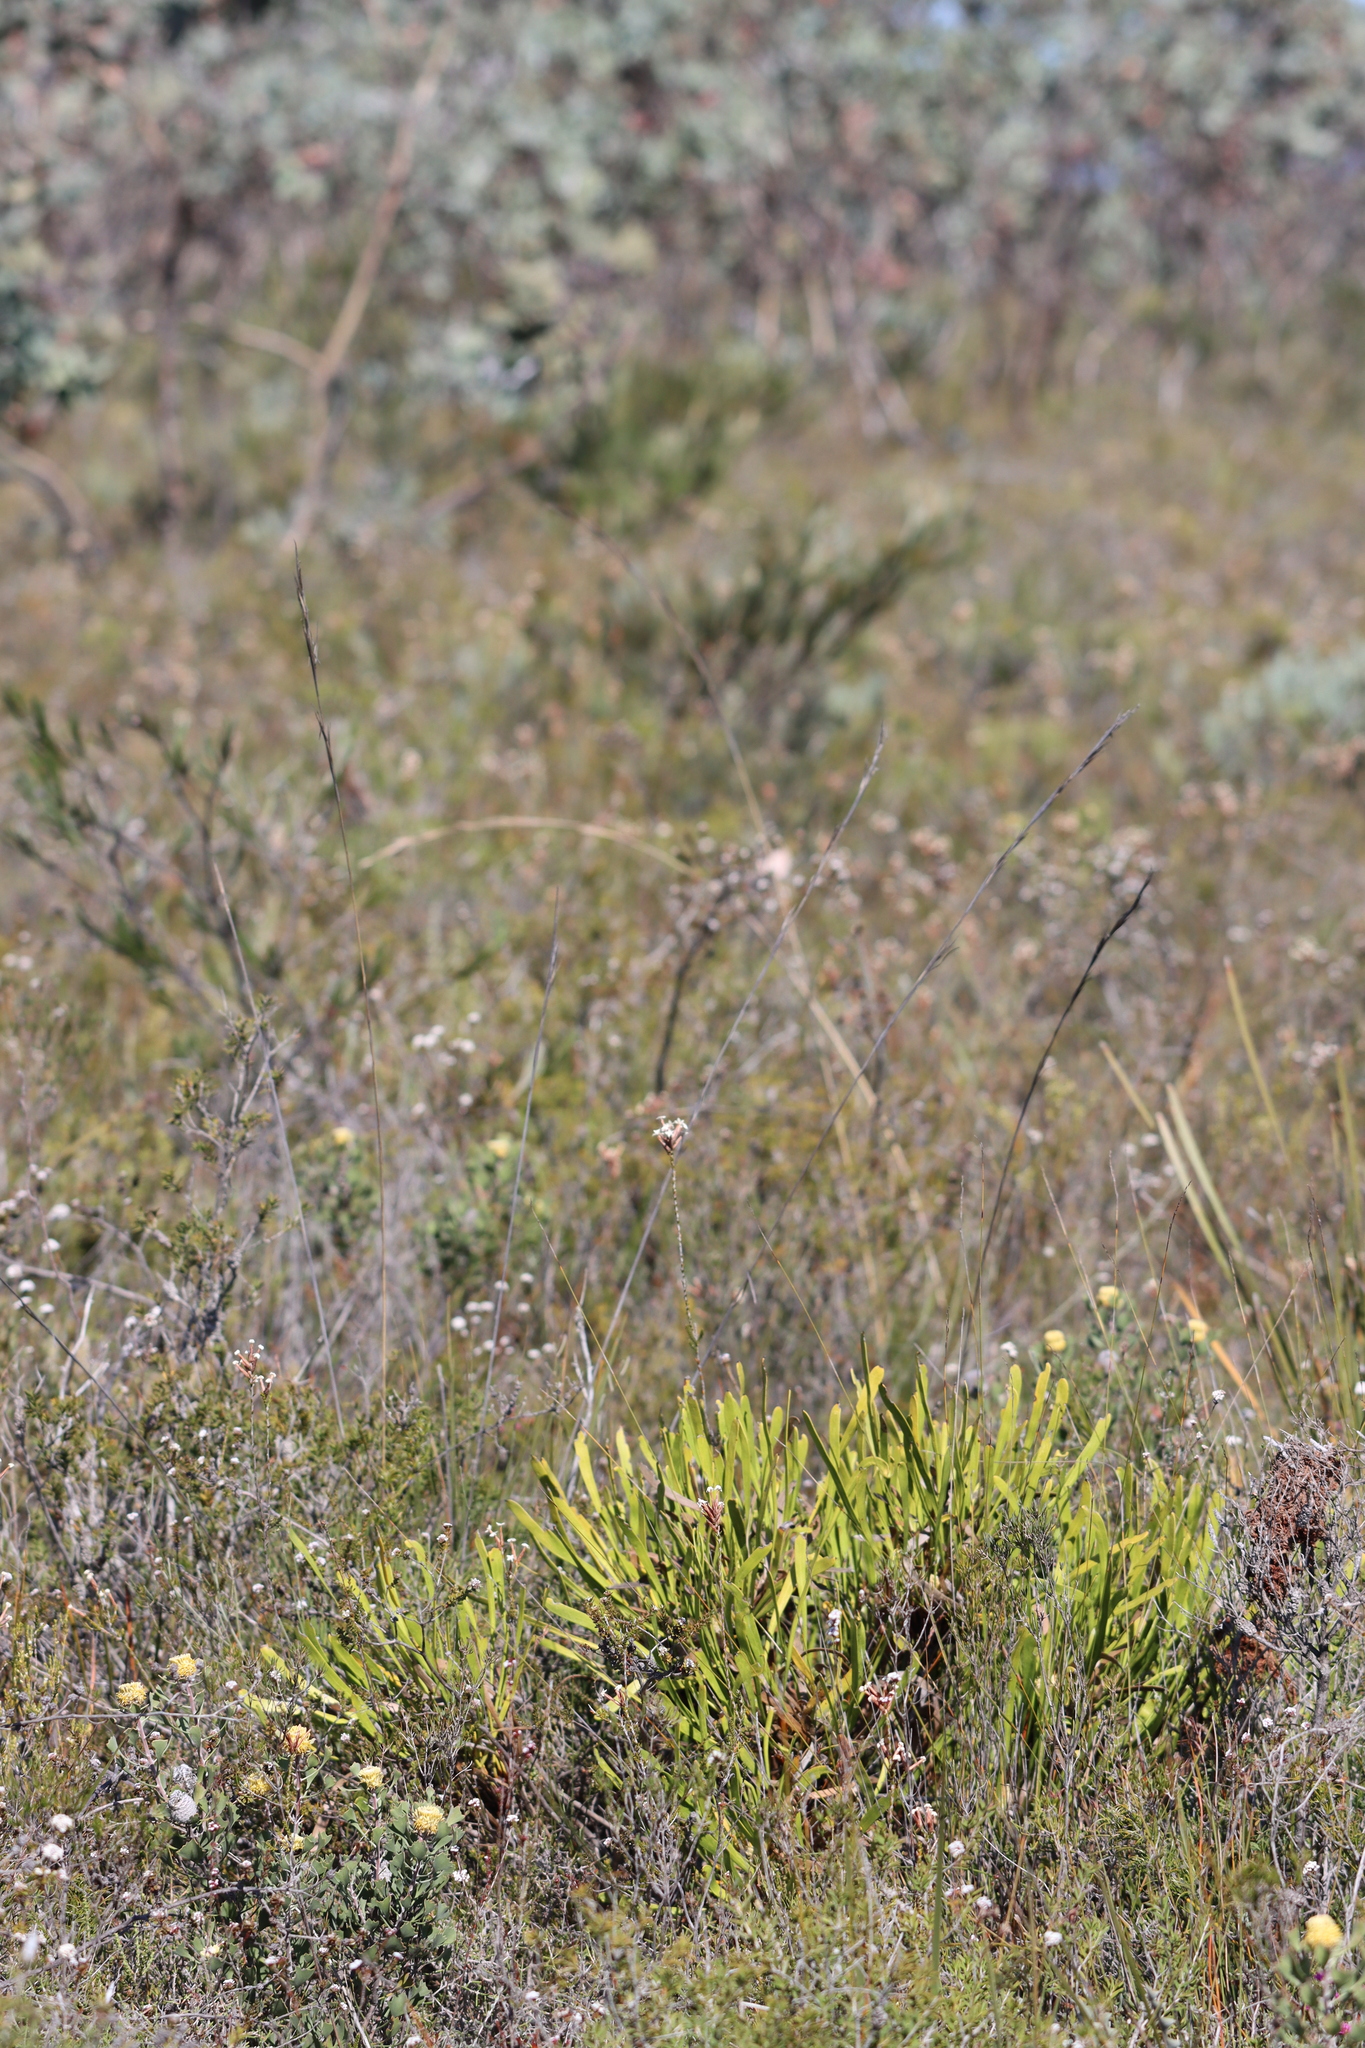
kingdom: Plantae
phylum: Tracheophyta
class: Magnoliopsida
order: Proteales
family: Proteaceae
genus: Isopogon
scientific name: Isopogon polycephalus
